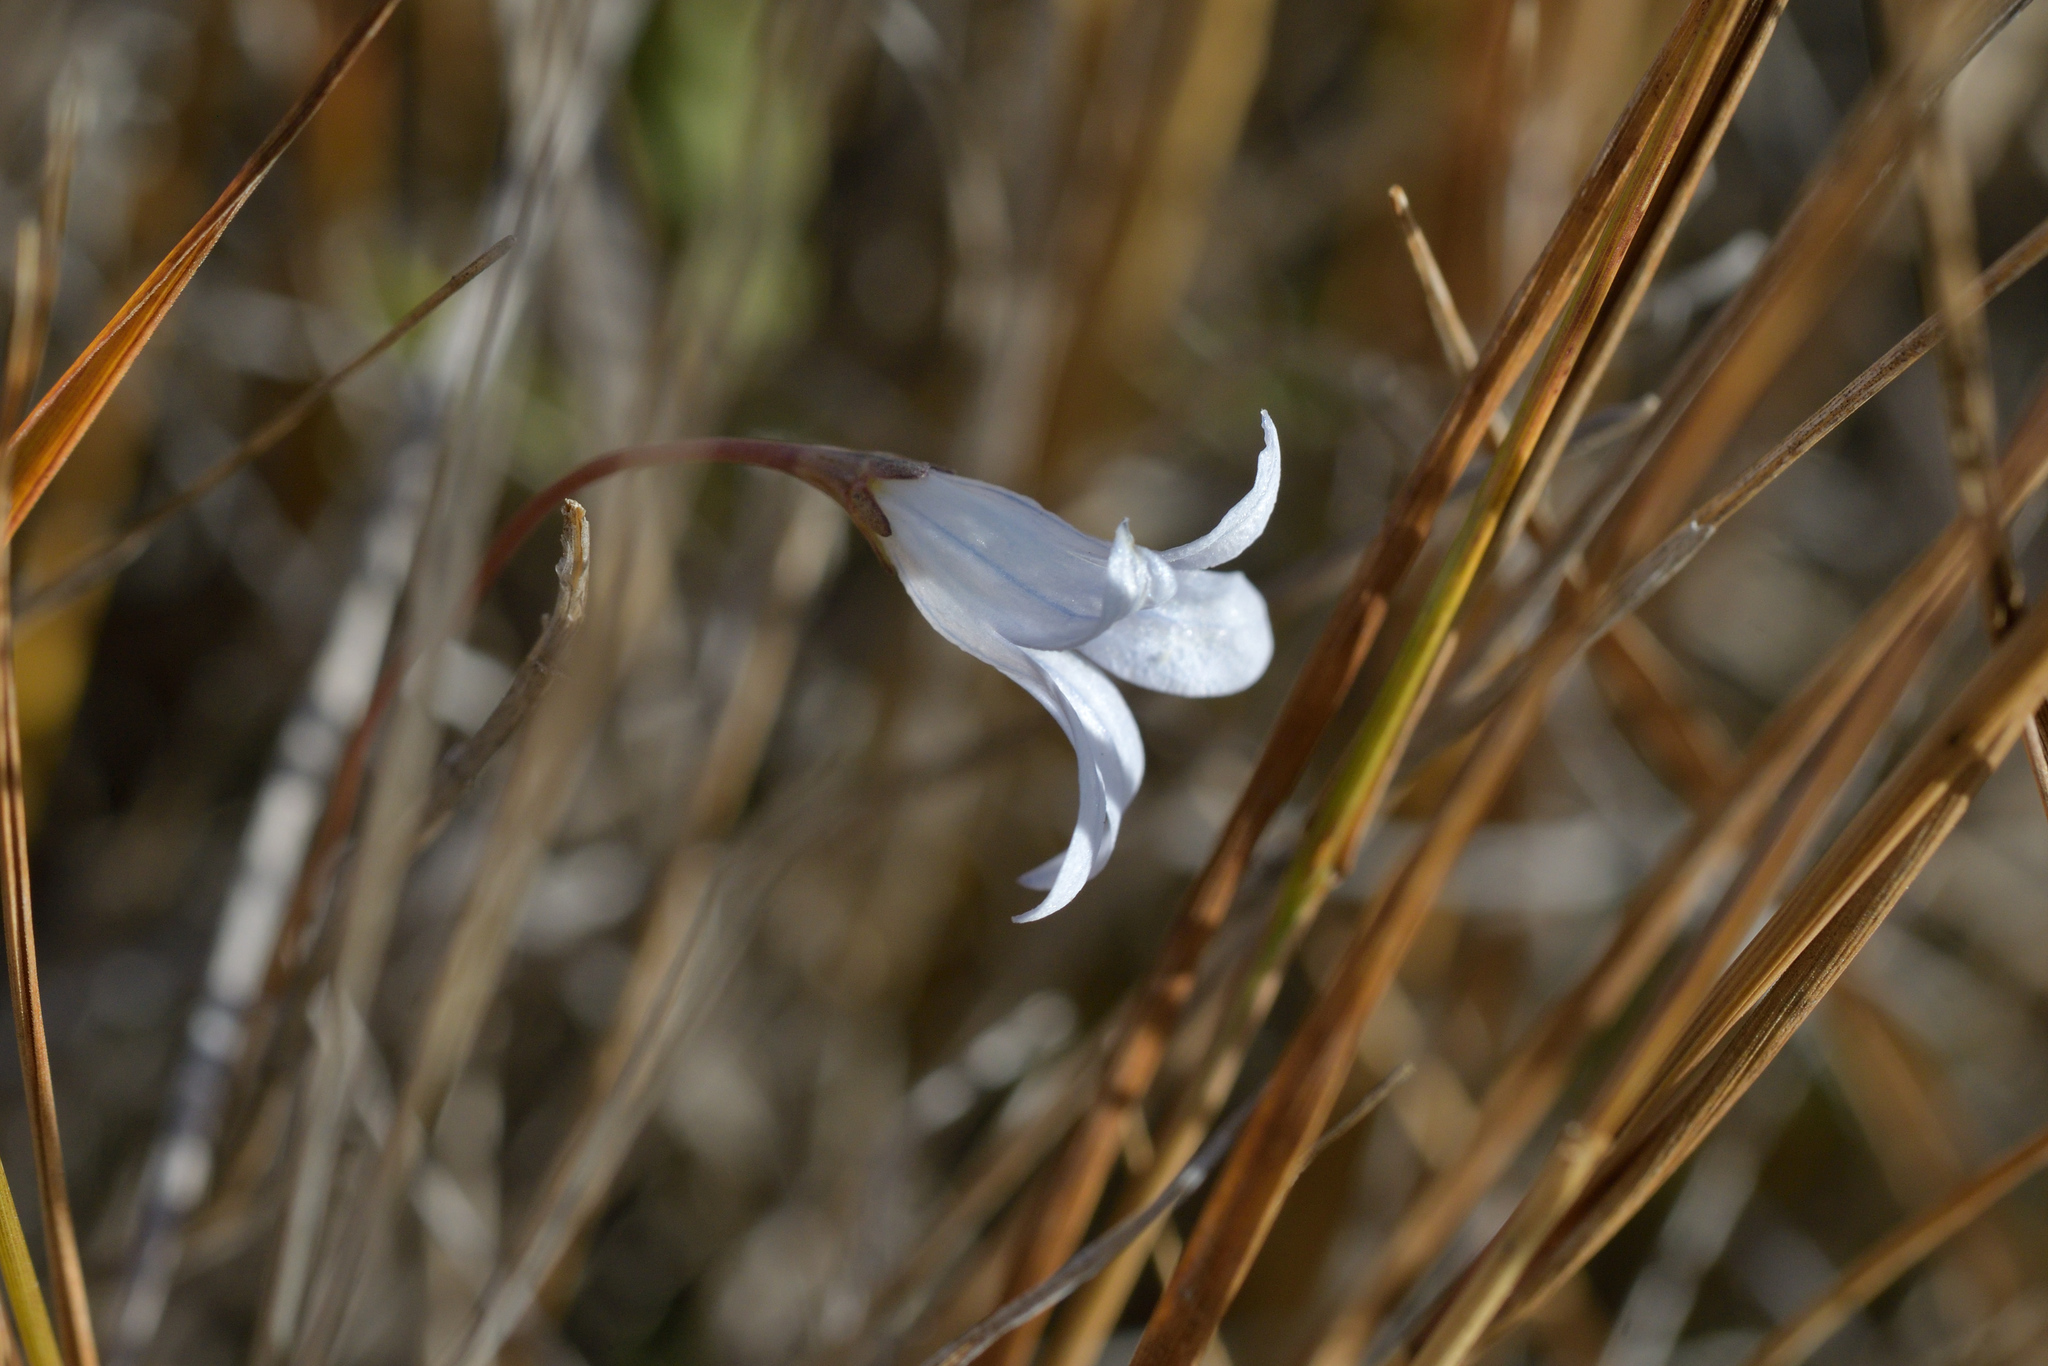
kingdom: Plantae
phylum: Tracheophyta
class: Magnoliopsida
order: Asterales
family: Campanulaceae
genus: Wahlenbergia
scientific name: Wahlenbergia albomarginata
